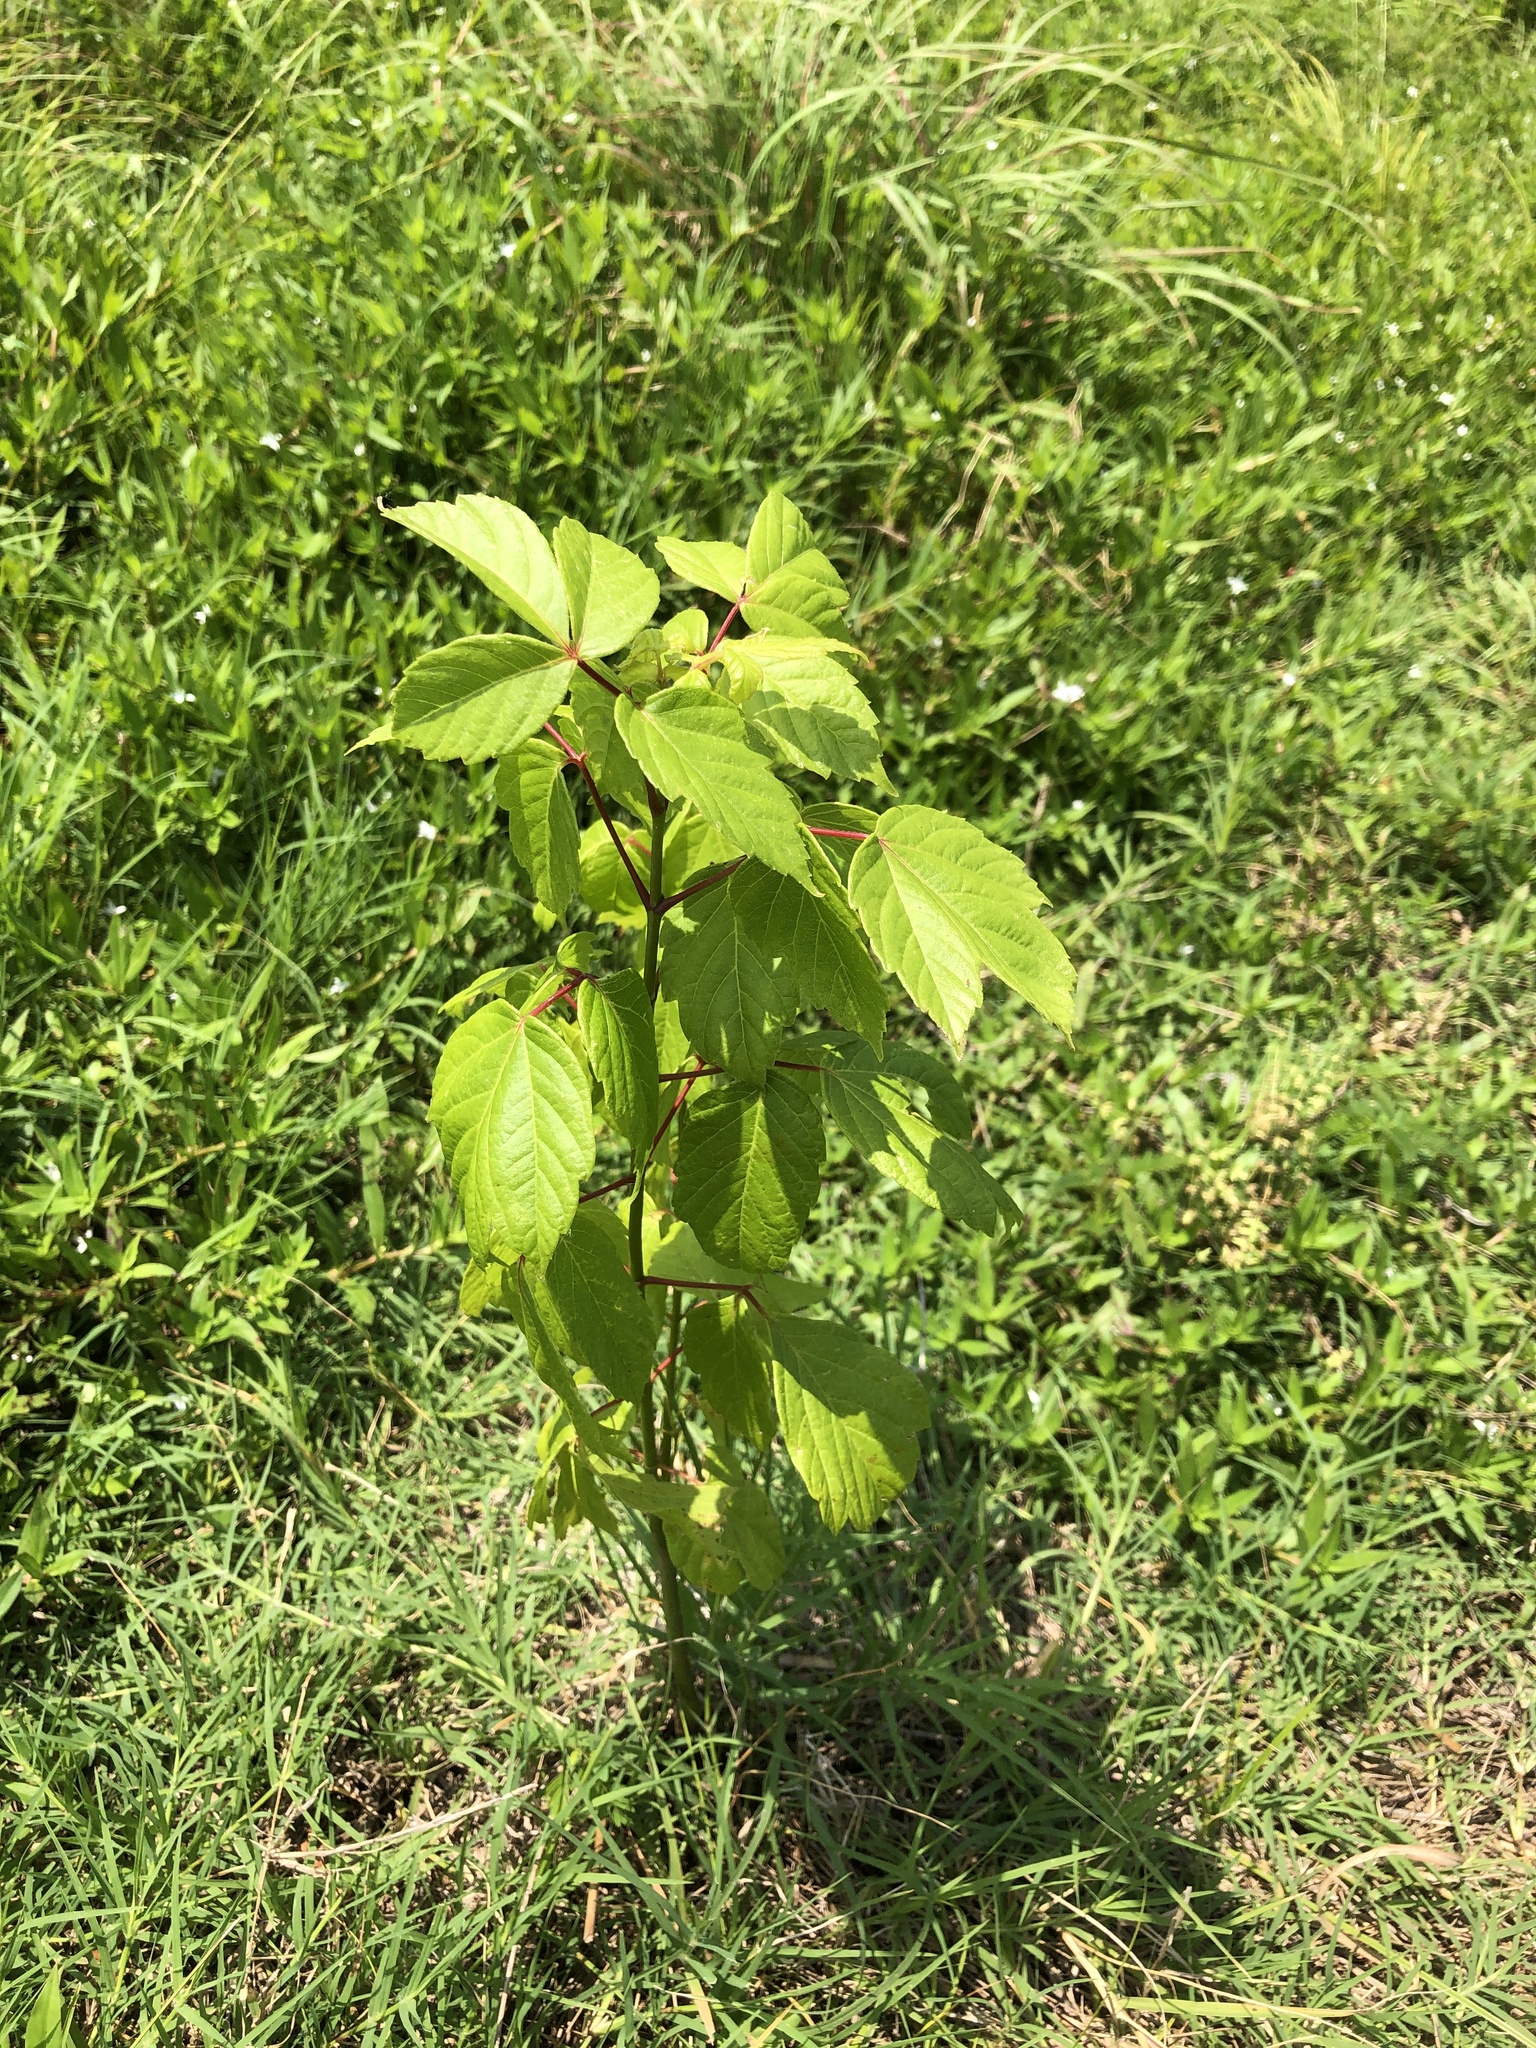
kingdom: Plantae
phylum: Tracheophyta
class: Magnoliopsida
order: Sapindales
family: Sapindaceae
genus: Acer
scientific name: Acer negundo
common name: Ashleaf maple
